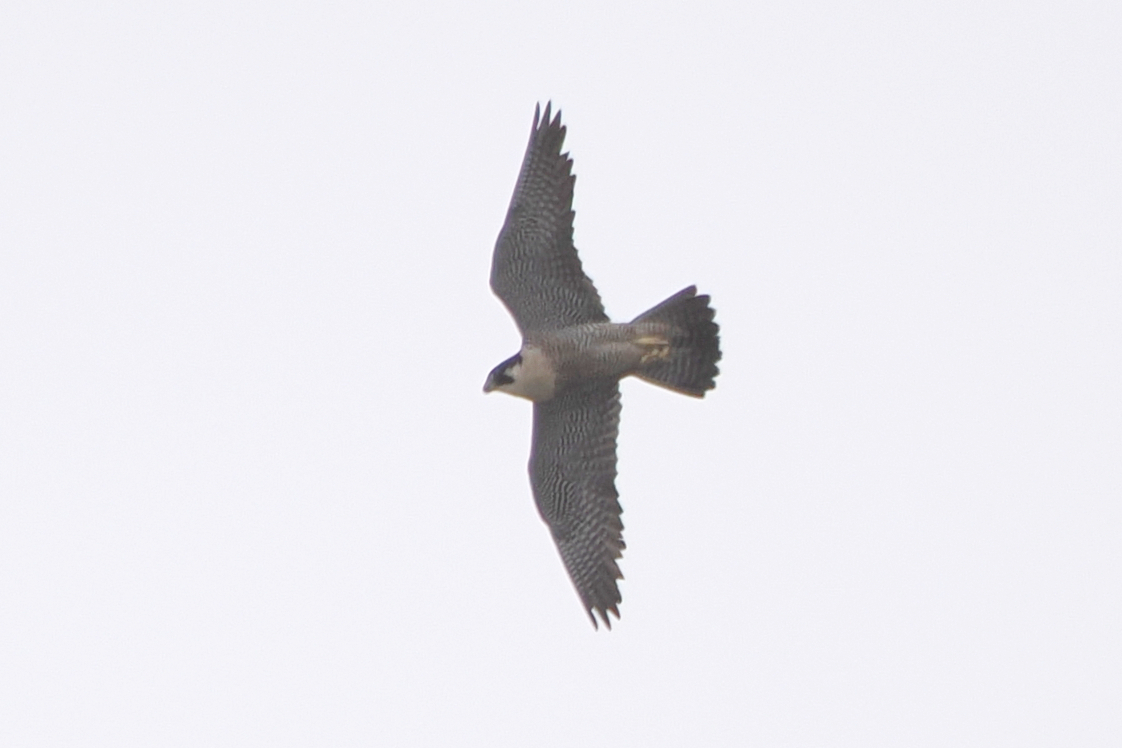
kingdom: Animalia
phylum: Chordata
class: Aves
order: Falconiformes
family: Falconidae
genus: Falco
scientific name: Falco peregrinus
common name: Peregrine falcon
